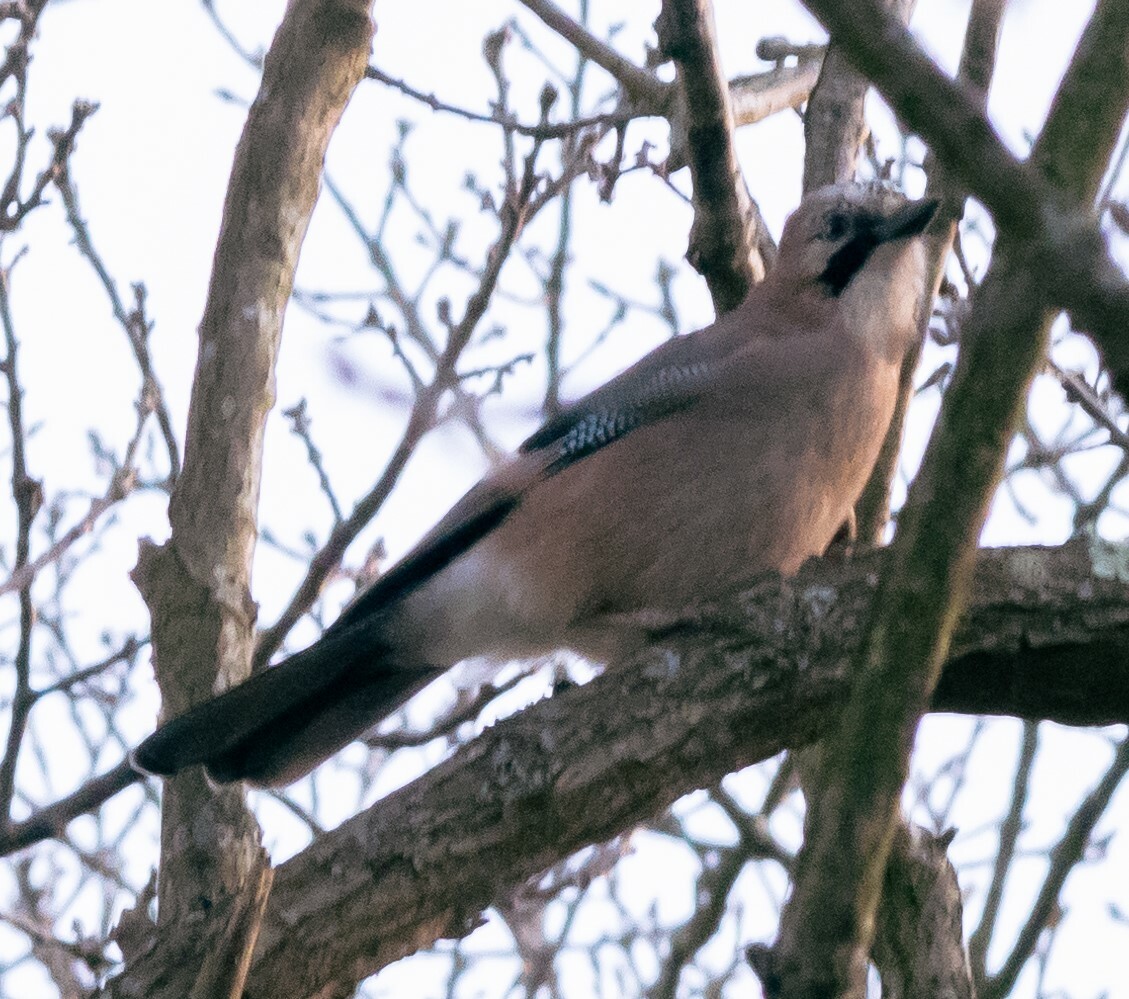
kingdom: Animalia
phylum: Chordata
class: Aves
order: Passeriformes
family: Corvidae
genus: Garrulus
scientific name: Garrulus glandarius
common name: Eurasian jay
